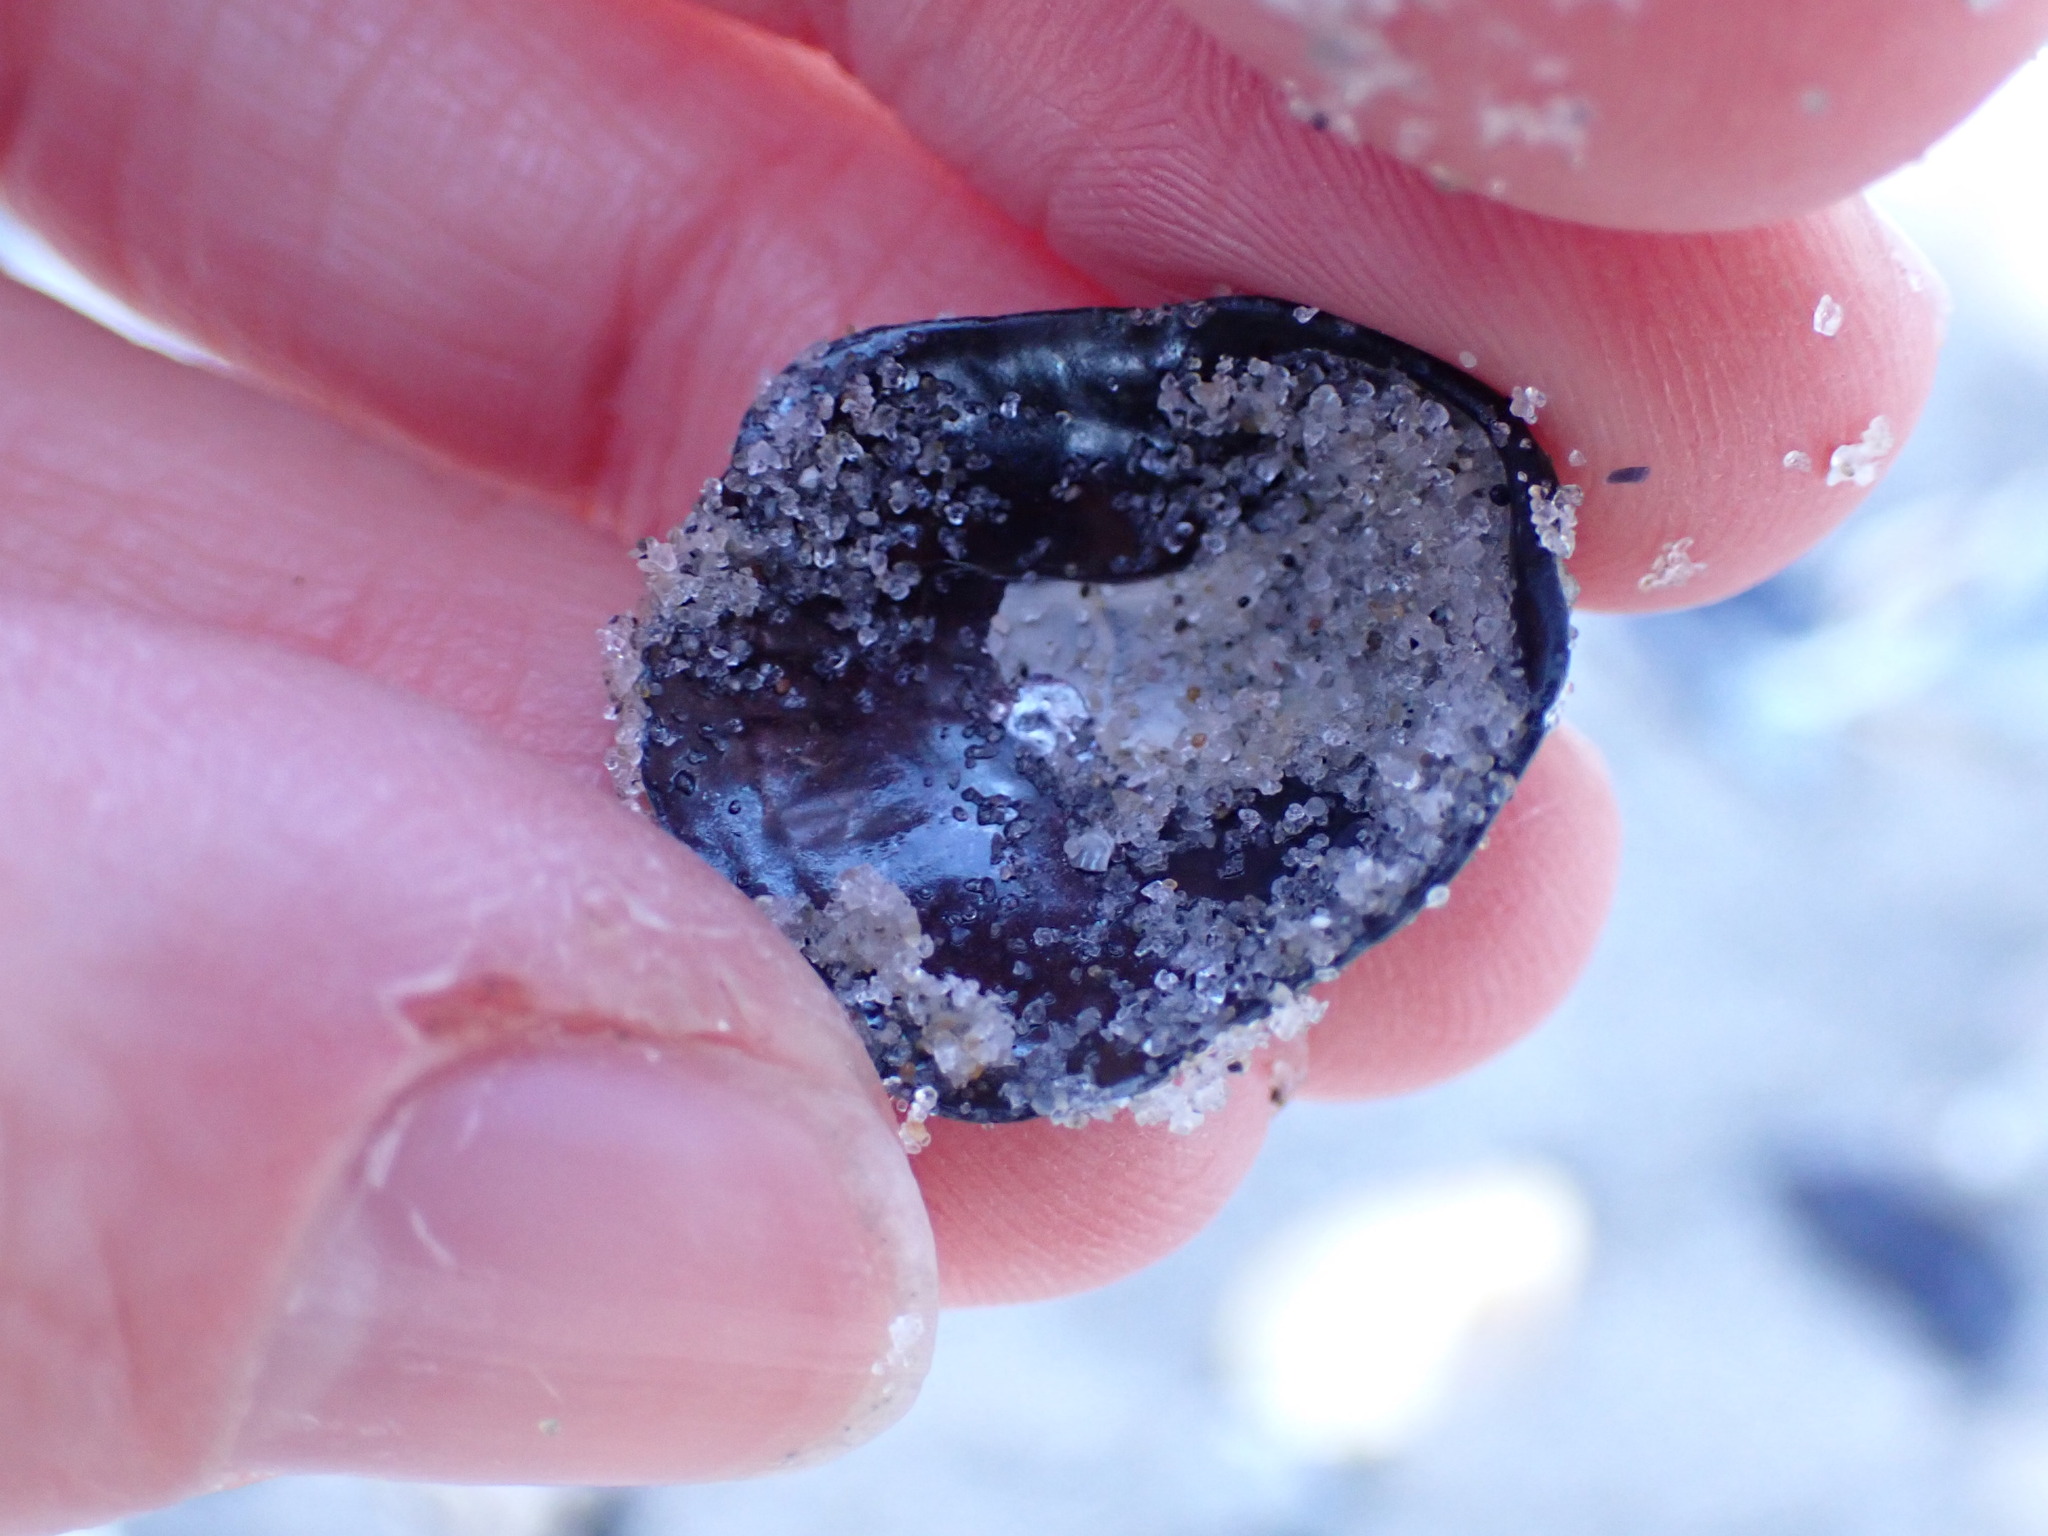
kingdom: Animalia
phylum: Mollusca
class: Bivalvia
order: Pectinida
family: Anomiidae
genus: Anomia
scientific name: Anomia simplex
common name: Common jingle shell
